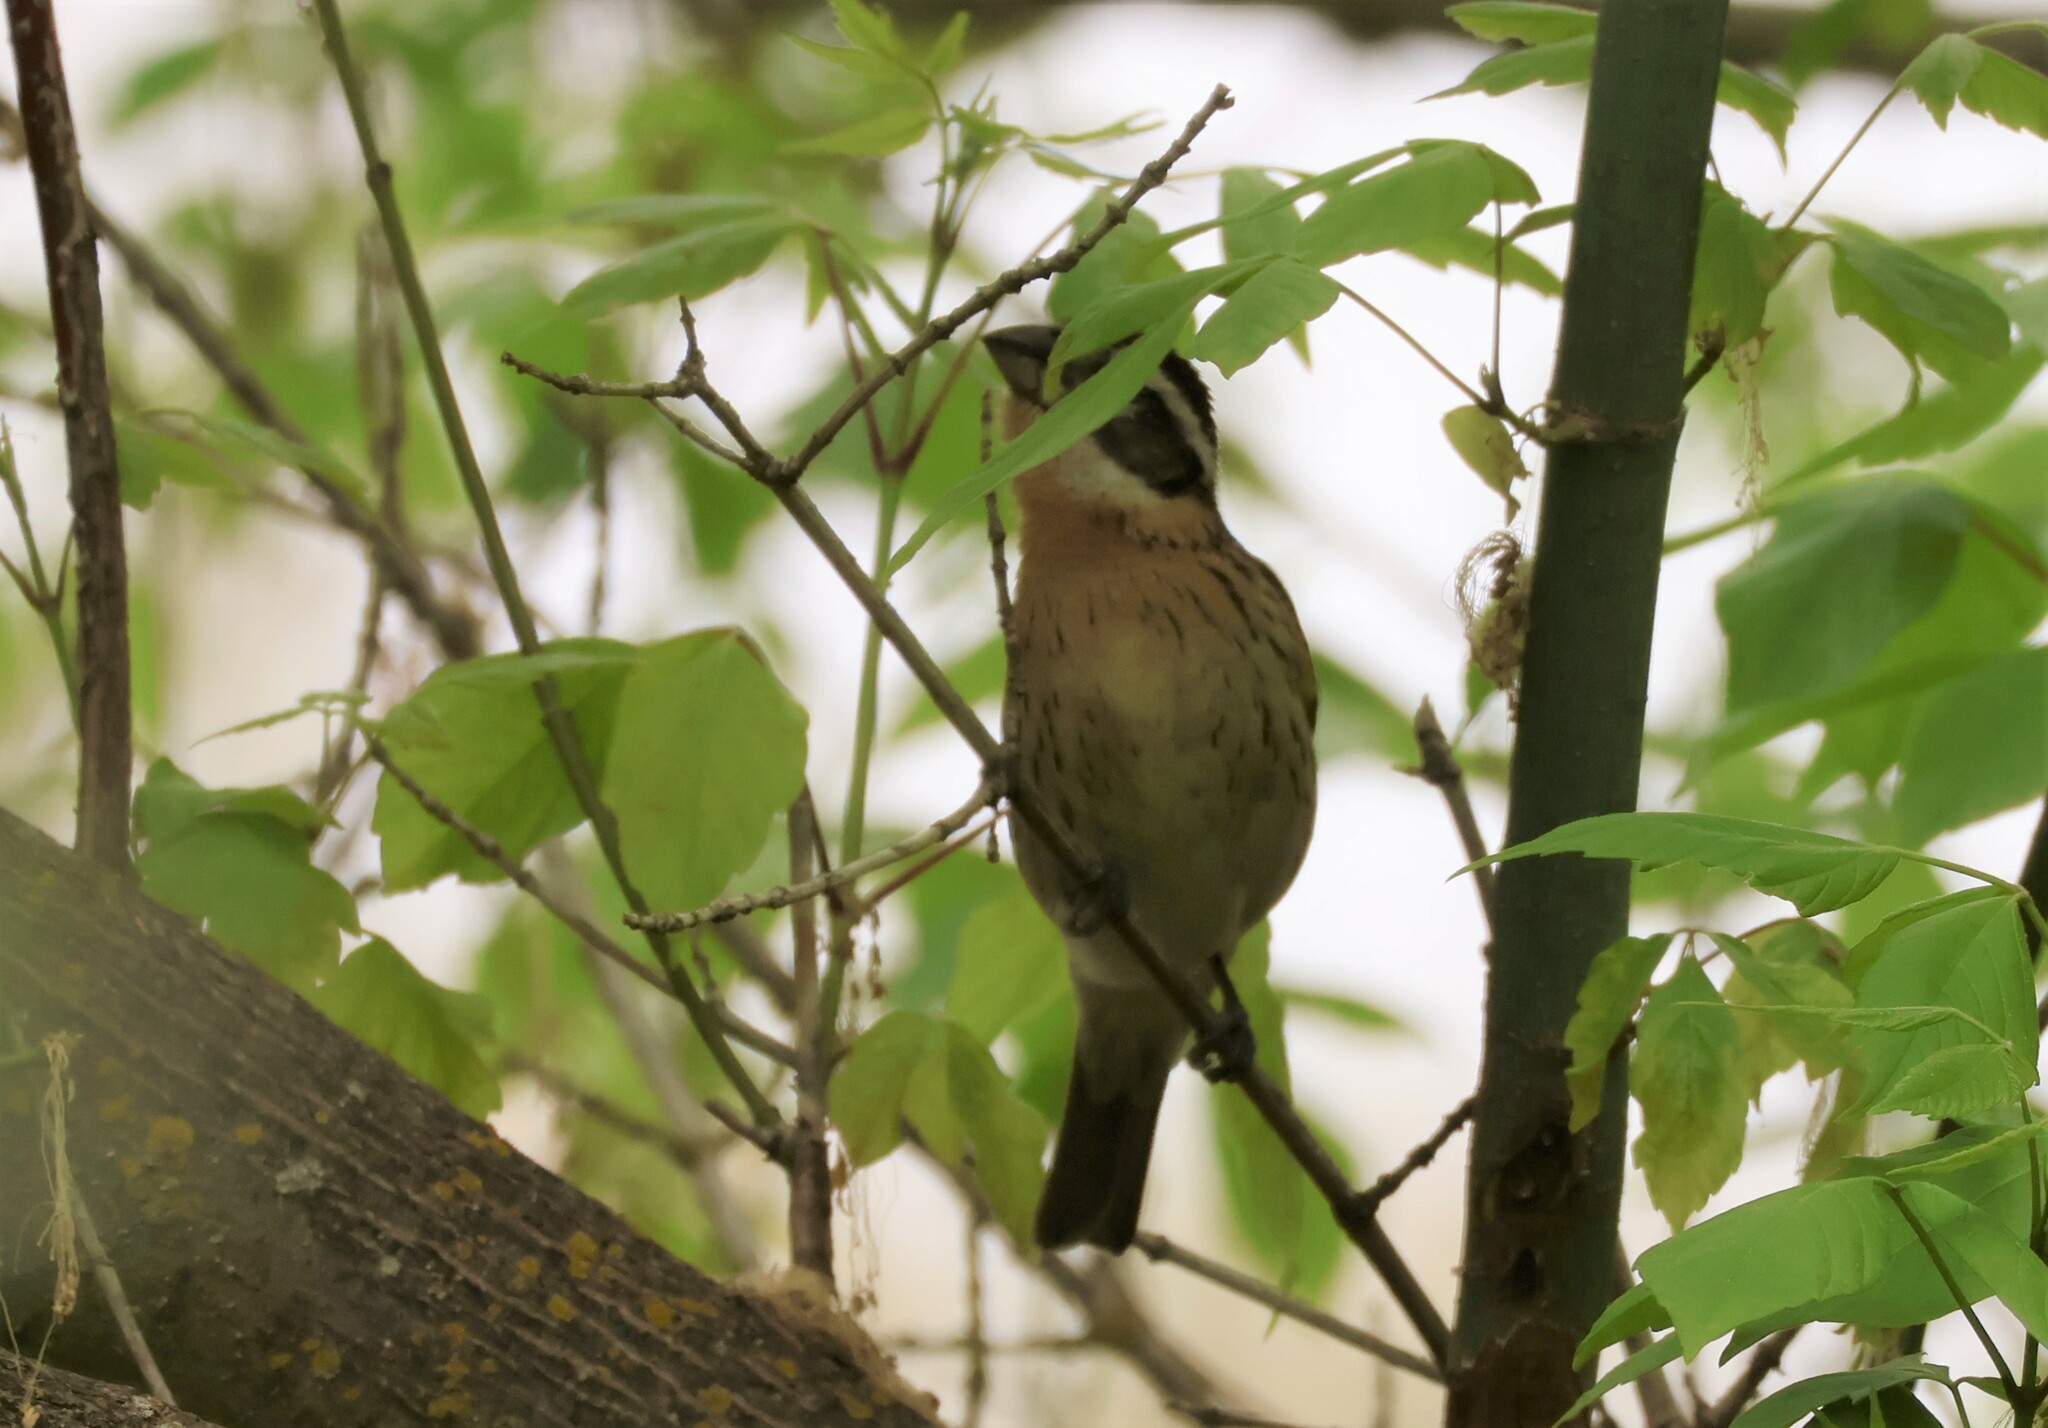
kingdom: Animalia
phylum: Chordata
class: Aves
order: Passeriformes
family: Cardinalidae
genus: Pheucticus
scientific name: Pheucticus melanocephalus
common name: Black-headed grosbeak
